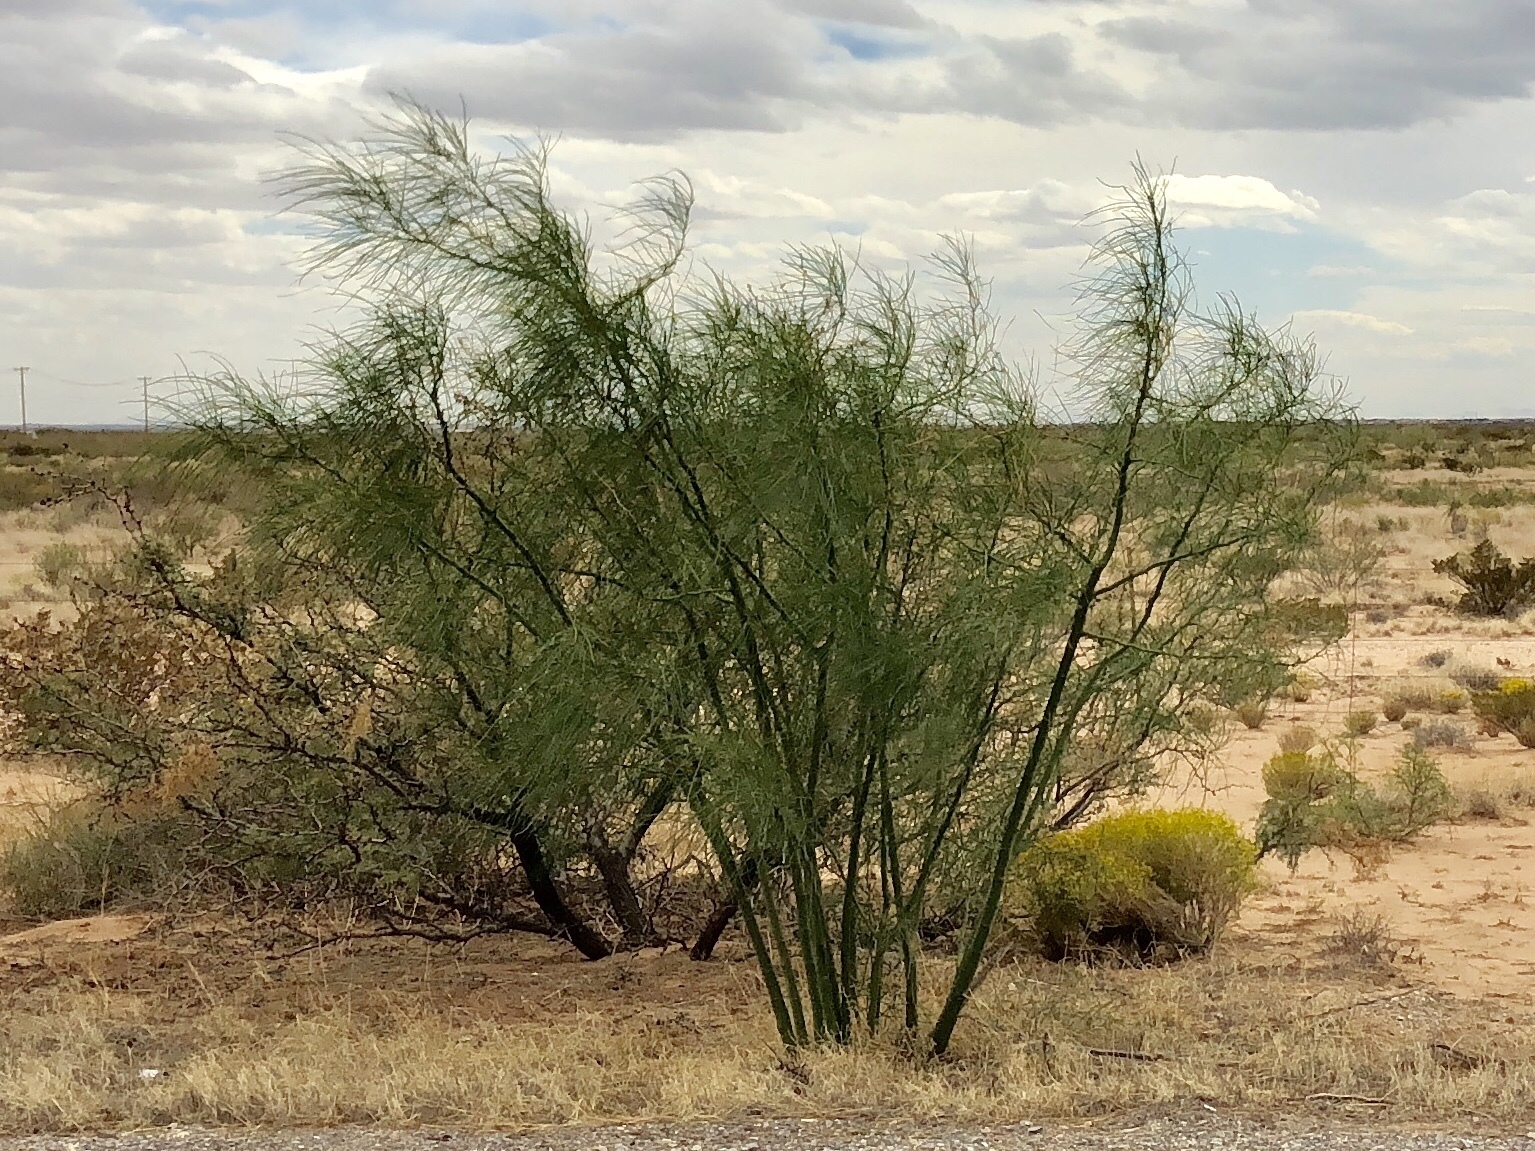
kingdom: Plantae
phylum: Tracheophyta
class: Magnoliopsida
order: Fabales
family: Fabaceae
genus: Parkinsonia
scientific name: Parkinsonia aculeata
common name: Jerusalem thorn
